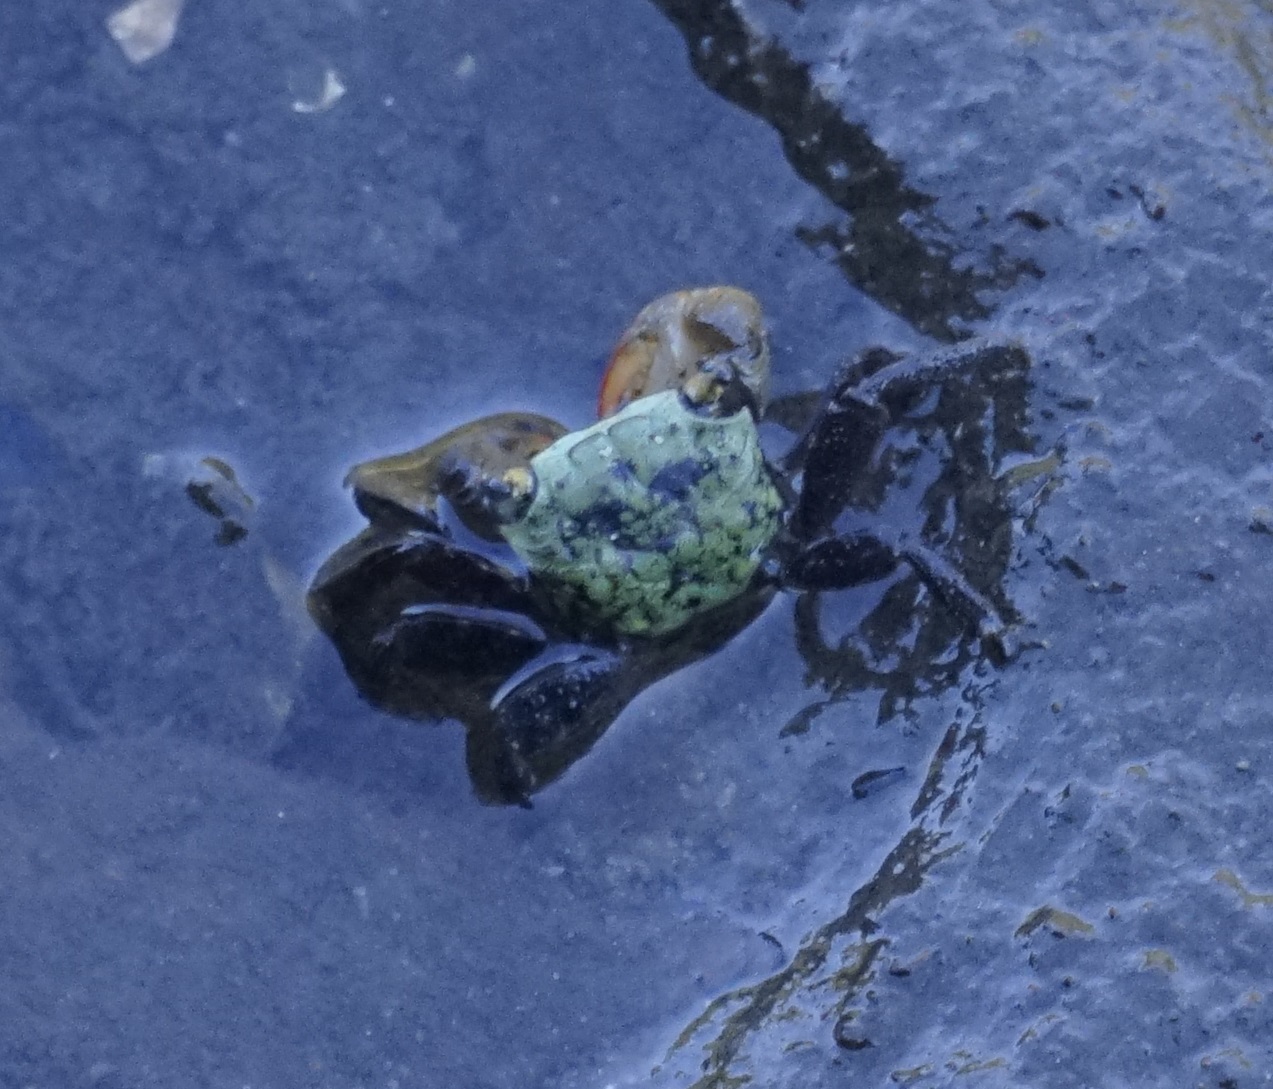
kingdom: Animalia
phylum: Arthropoda
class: Malacostraca
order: Decapoda
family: Sesarmidae
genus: Parasesarma
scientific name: Parasesarma erythodactylum
